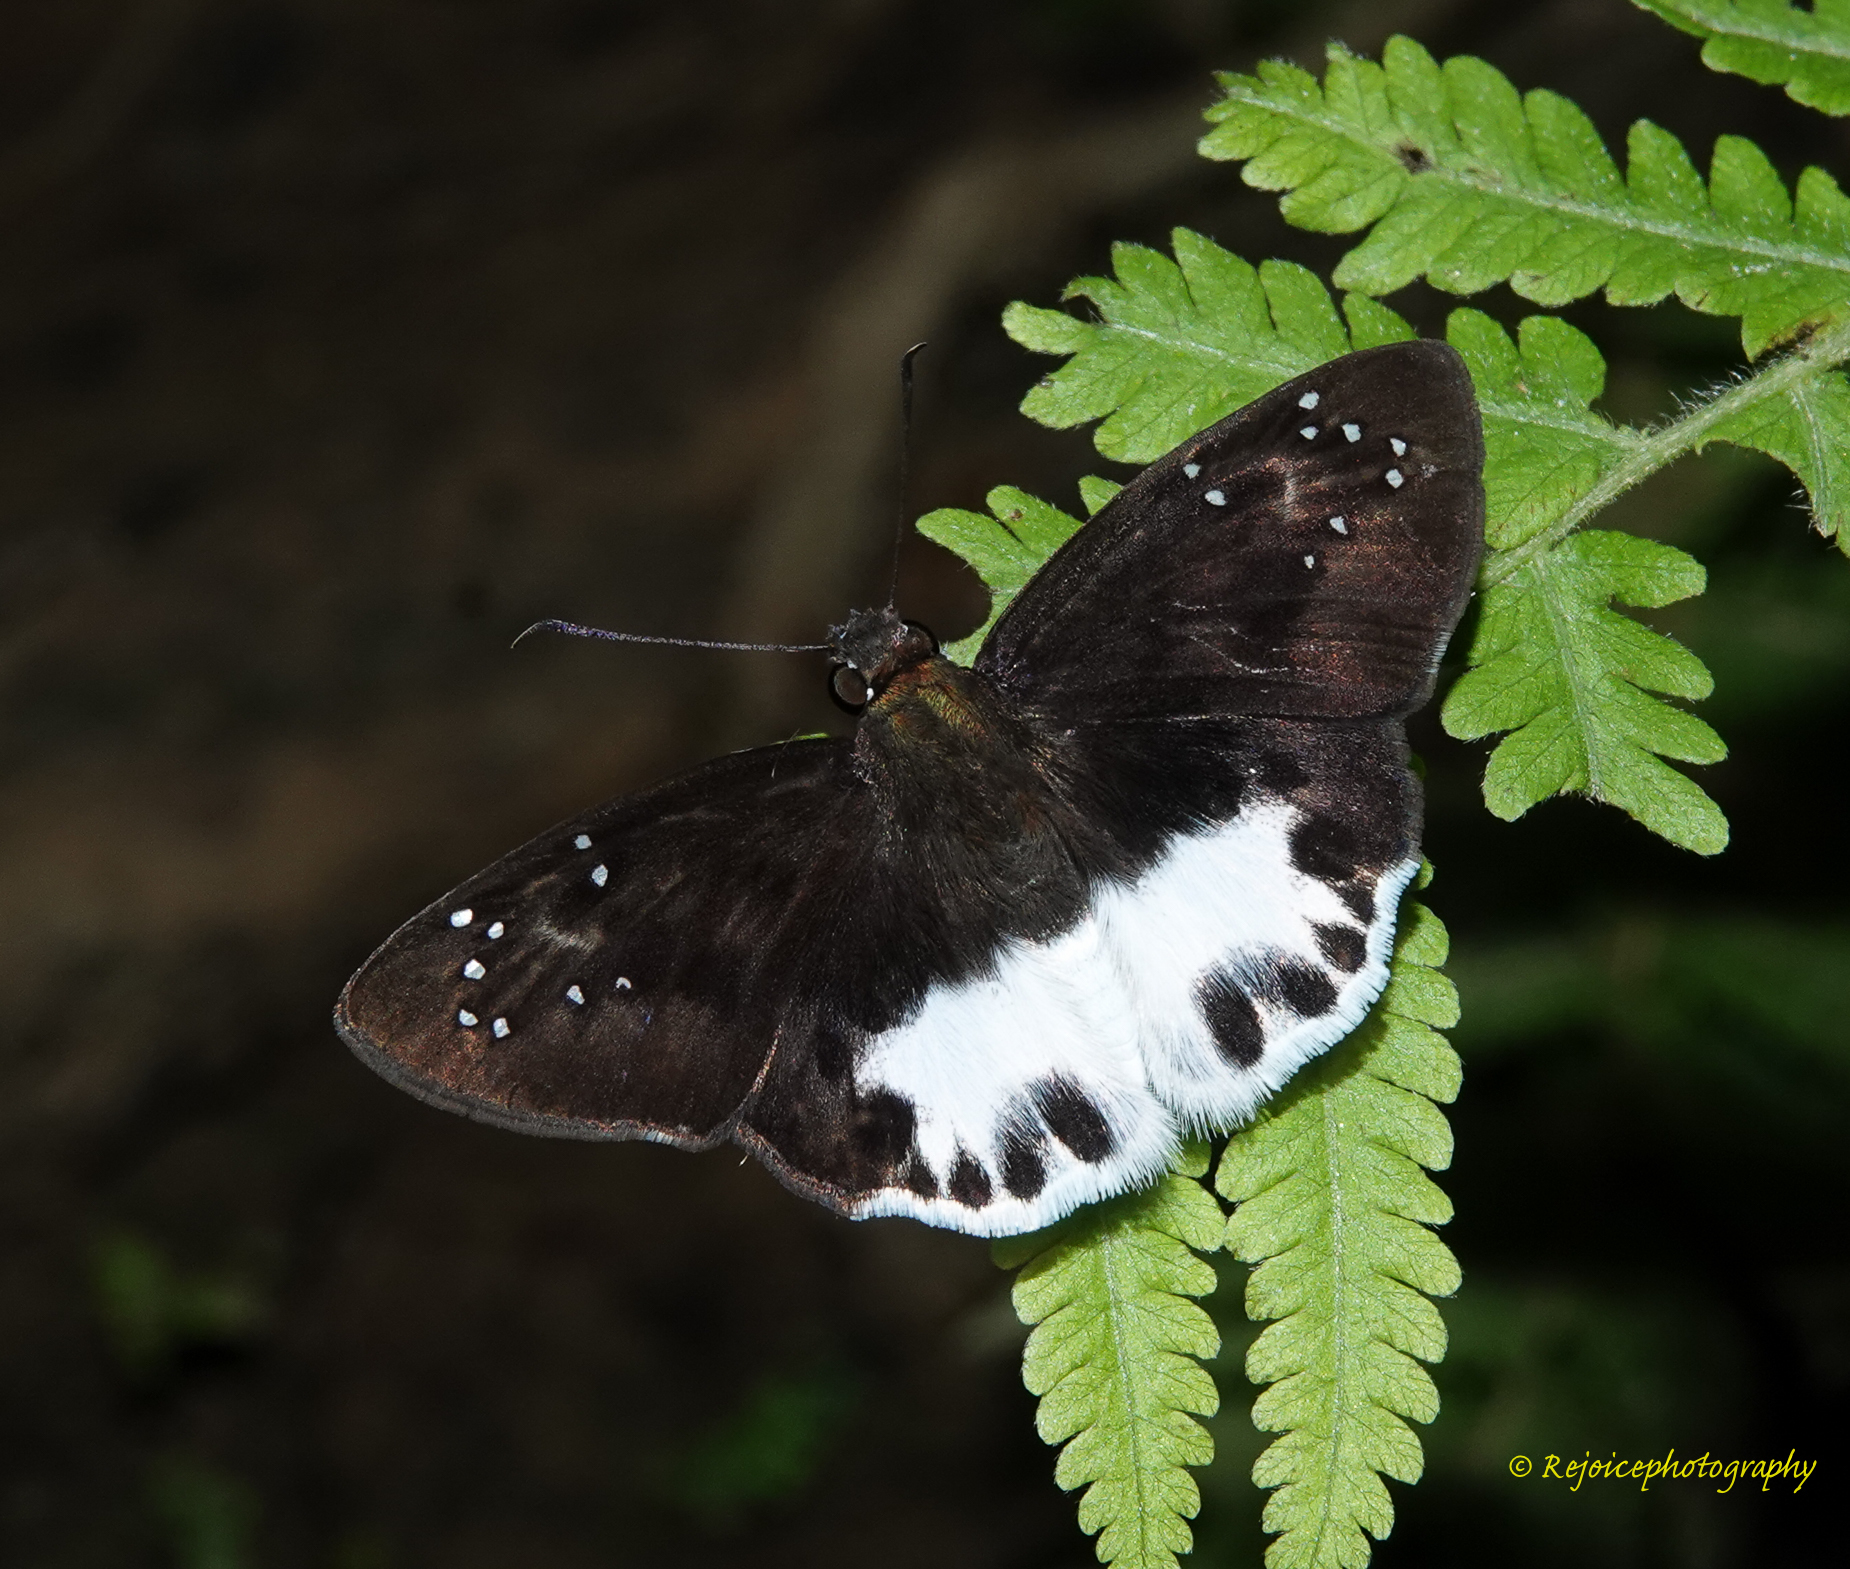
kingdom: Animalia
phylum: Arthropoda
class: Insecta
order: Lepidoptera
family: Hesperiidae
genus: Tagiades
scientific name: Tagiades litigiosa
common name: Water snow flat
